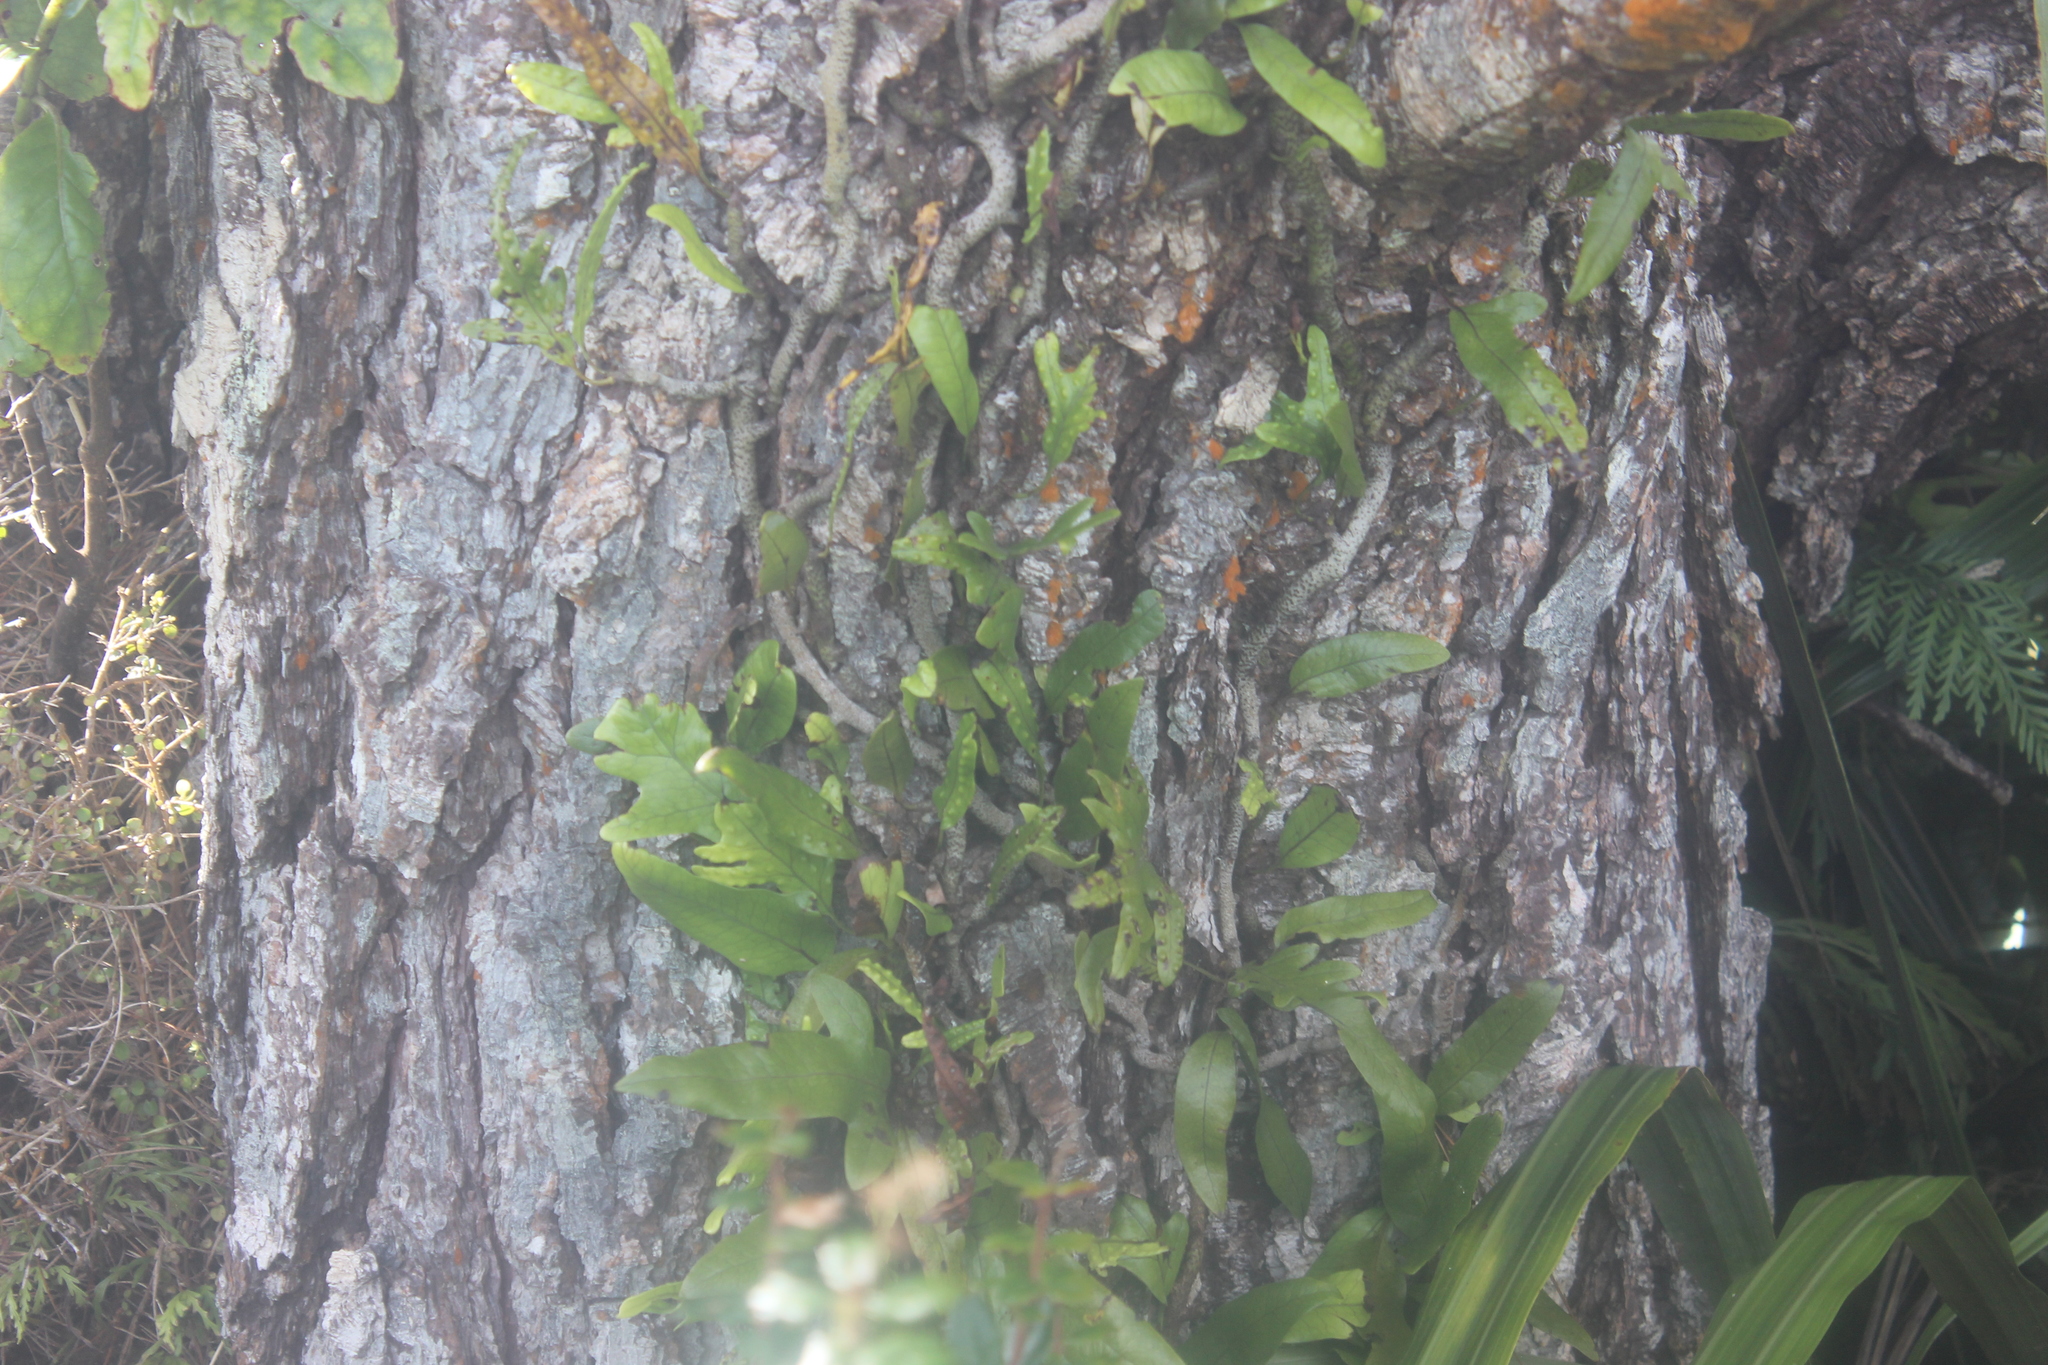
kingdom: Plantae
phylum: Tracheophyta
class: Polypodiopsida
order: Polypodiales
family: Polypodiaceae
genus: Lecanopteris
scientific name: Lecanopteris pustulata
